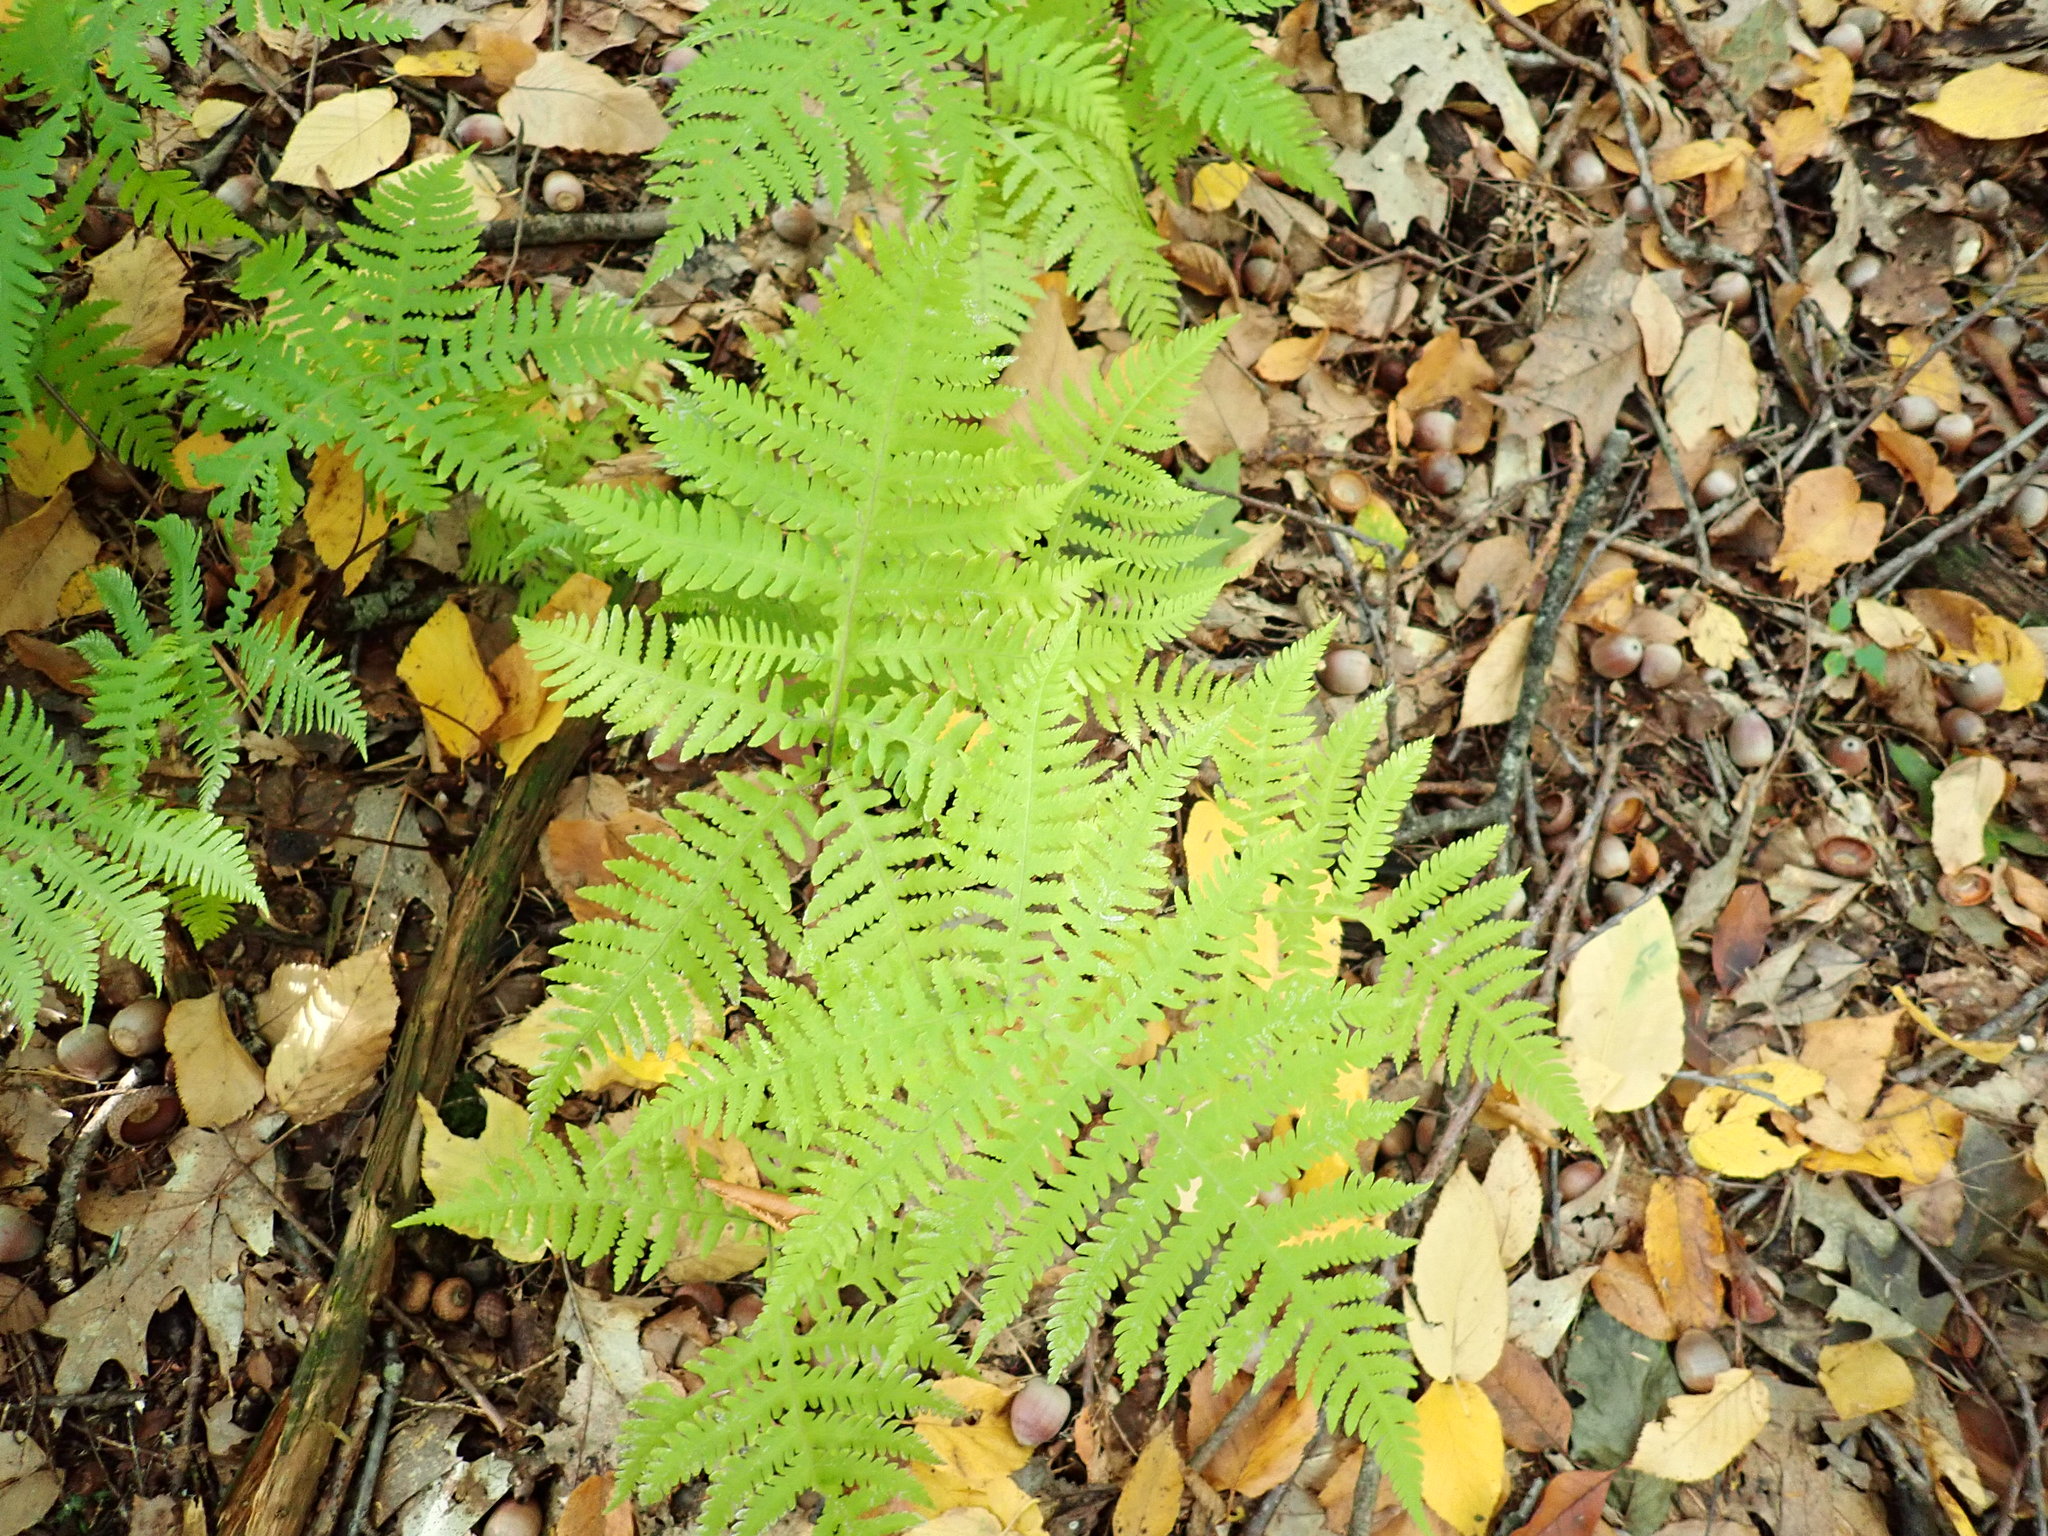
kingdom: Plantae
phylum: Tracheophyta
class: Polypodiopsida
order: Polypodiales
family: Thelypteridaceae
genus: Phegopteris
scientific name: Phegopteris hexagonoptera
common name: Broad beech fern
